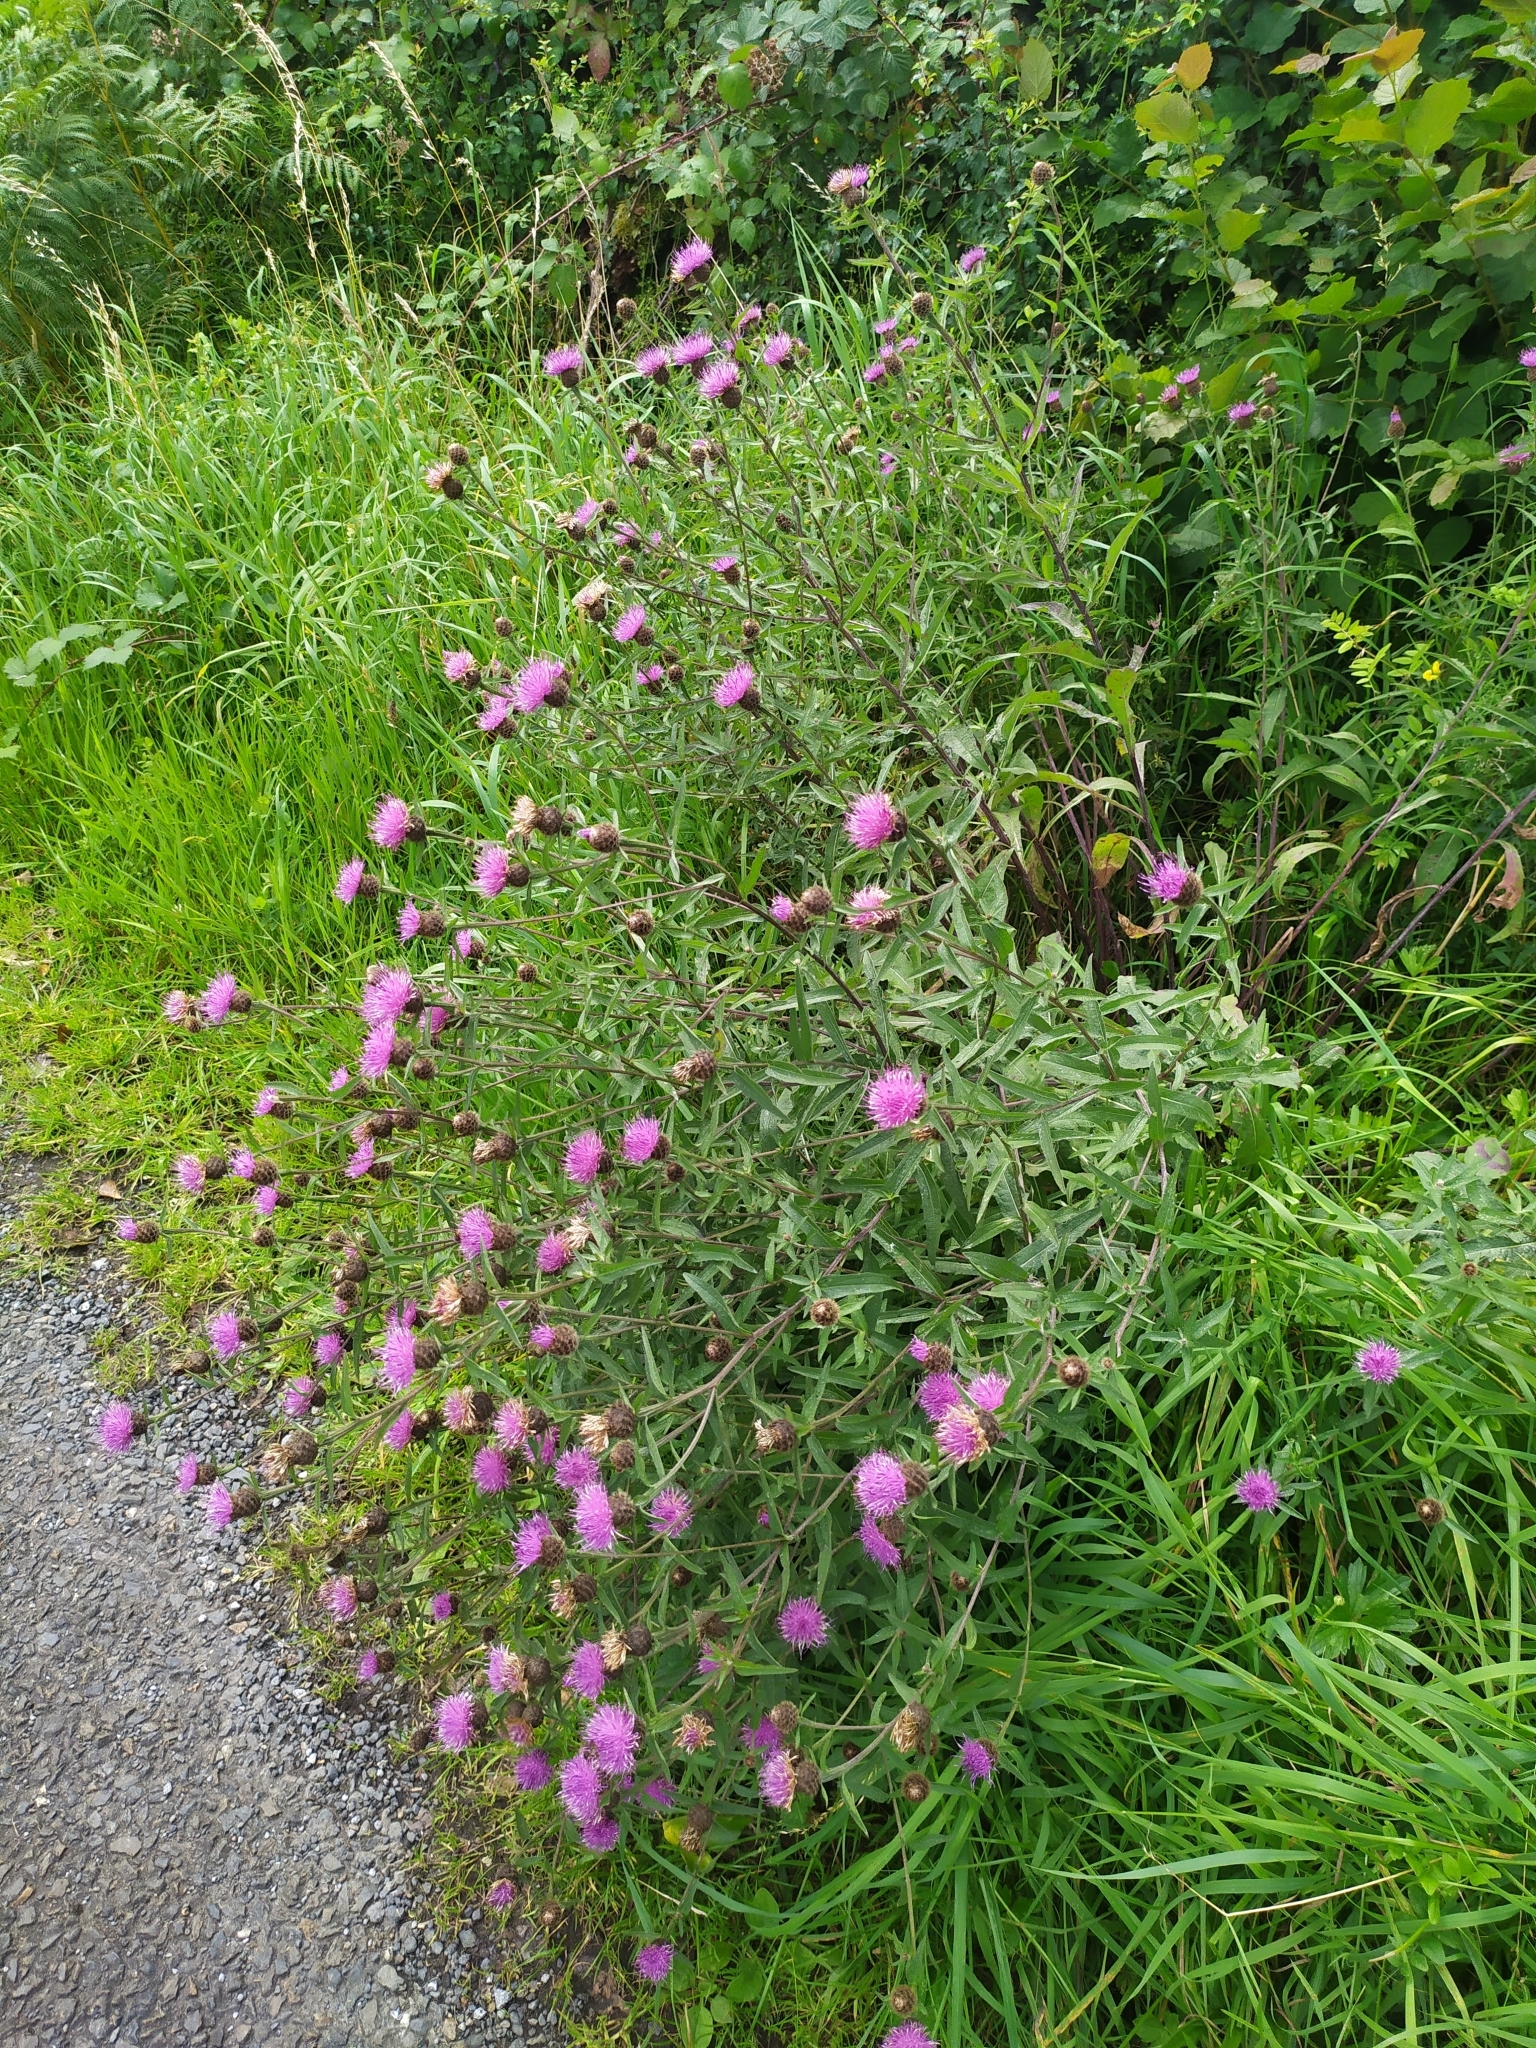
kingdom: Plantae
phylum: Tracheophyta
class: Magnoliopsida
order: Asterales
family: Asteraceae
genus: Centaurea
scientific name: Centaurea nigra
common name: Lesser knapweed
